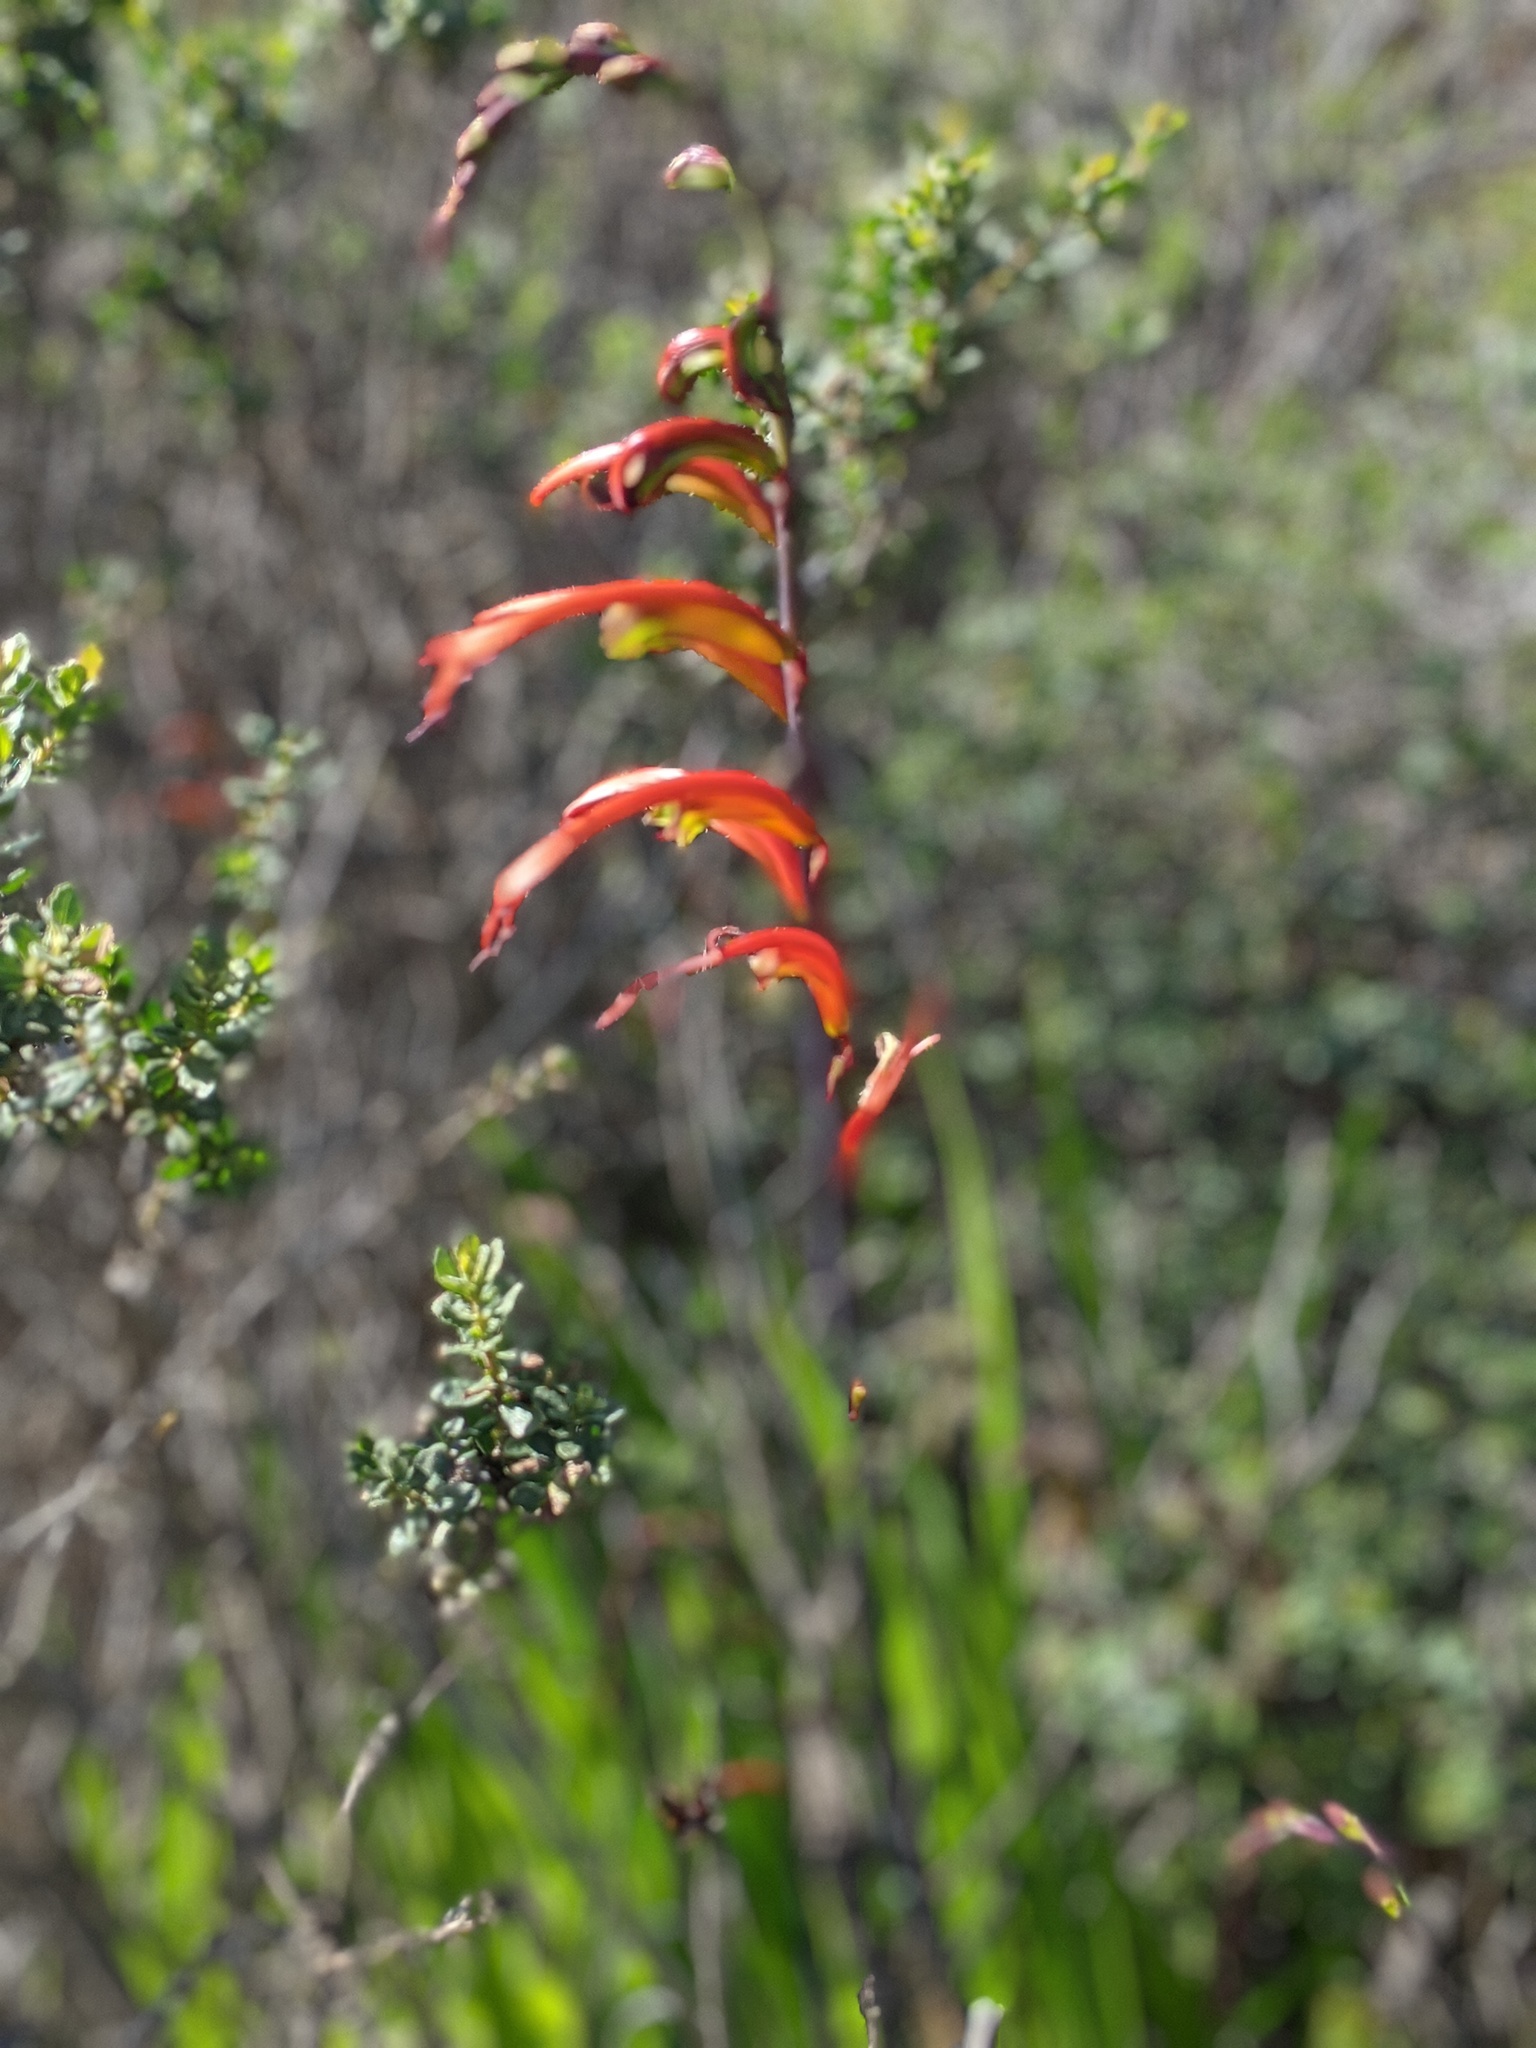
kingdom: Plantae
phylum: Tracheophyta
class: Liliopsida
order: Asparagales
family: Iridaceae
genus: Chasmanthe
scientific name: Chasmanthe bicolor
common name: Bicolor cobra lily
